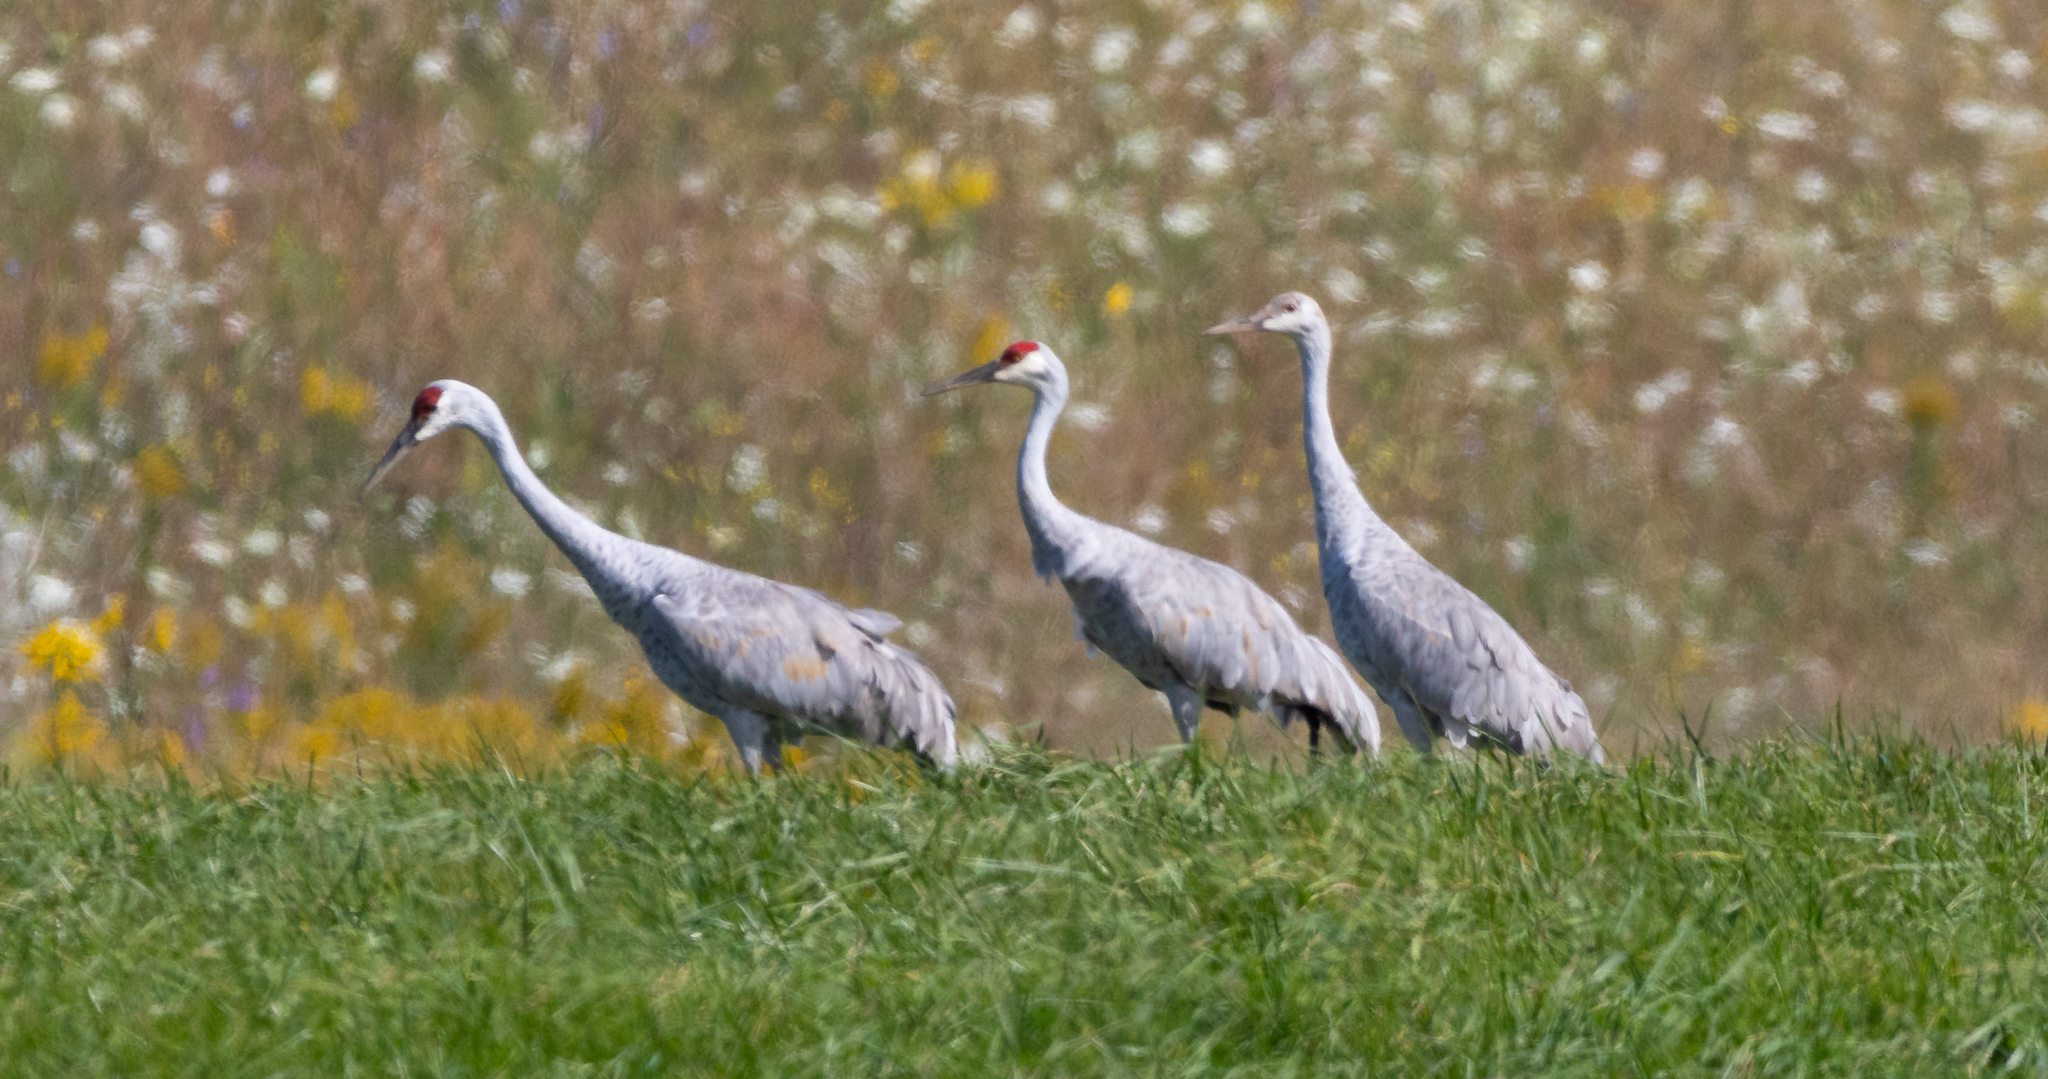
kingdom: Animalia
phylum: Chordata
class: Aves
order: Gruiformes
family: Gruidae
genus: Grus
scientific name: Grus canadensis
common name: Sandhill crane
